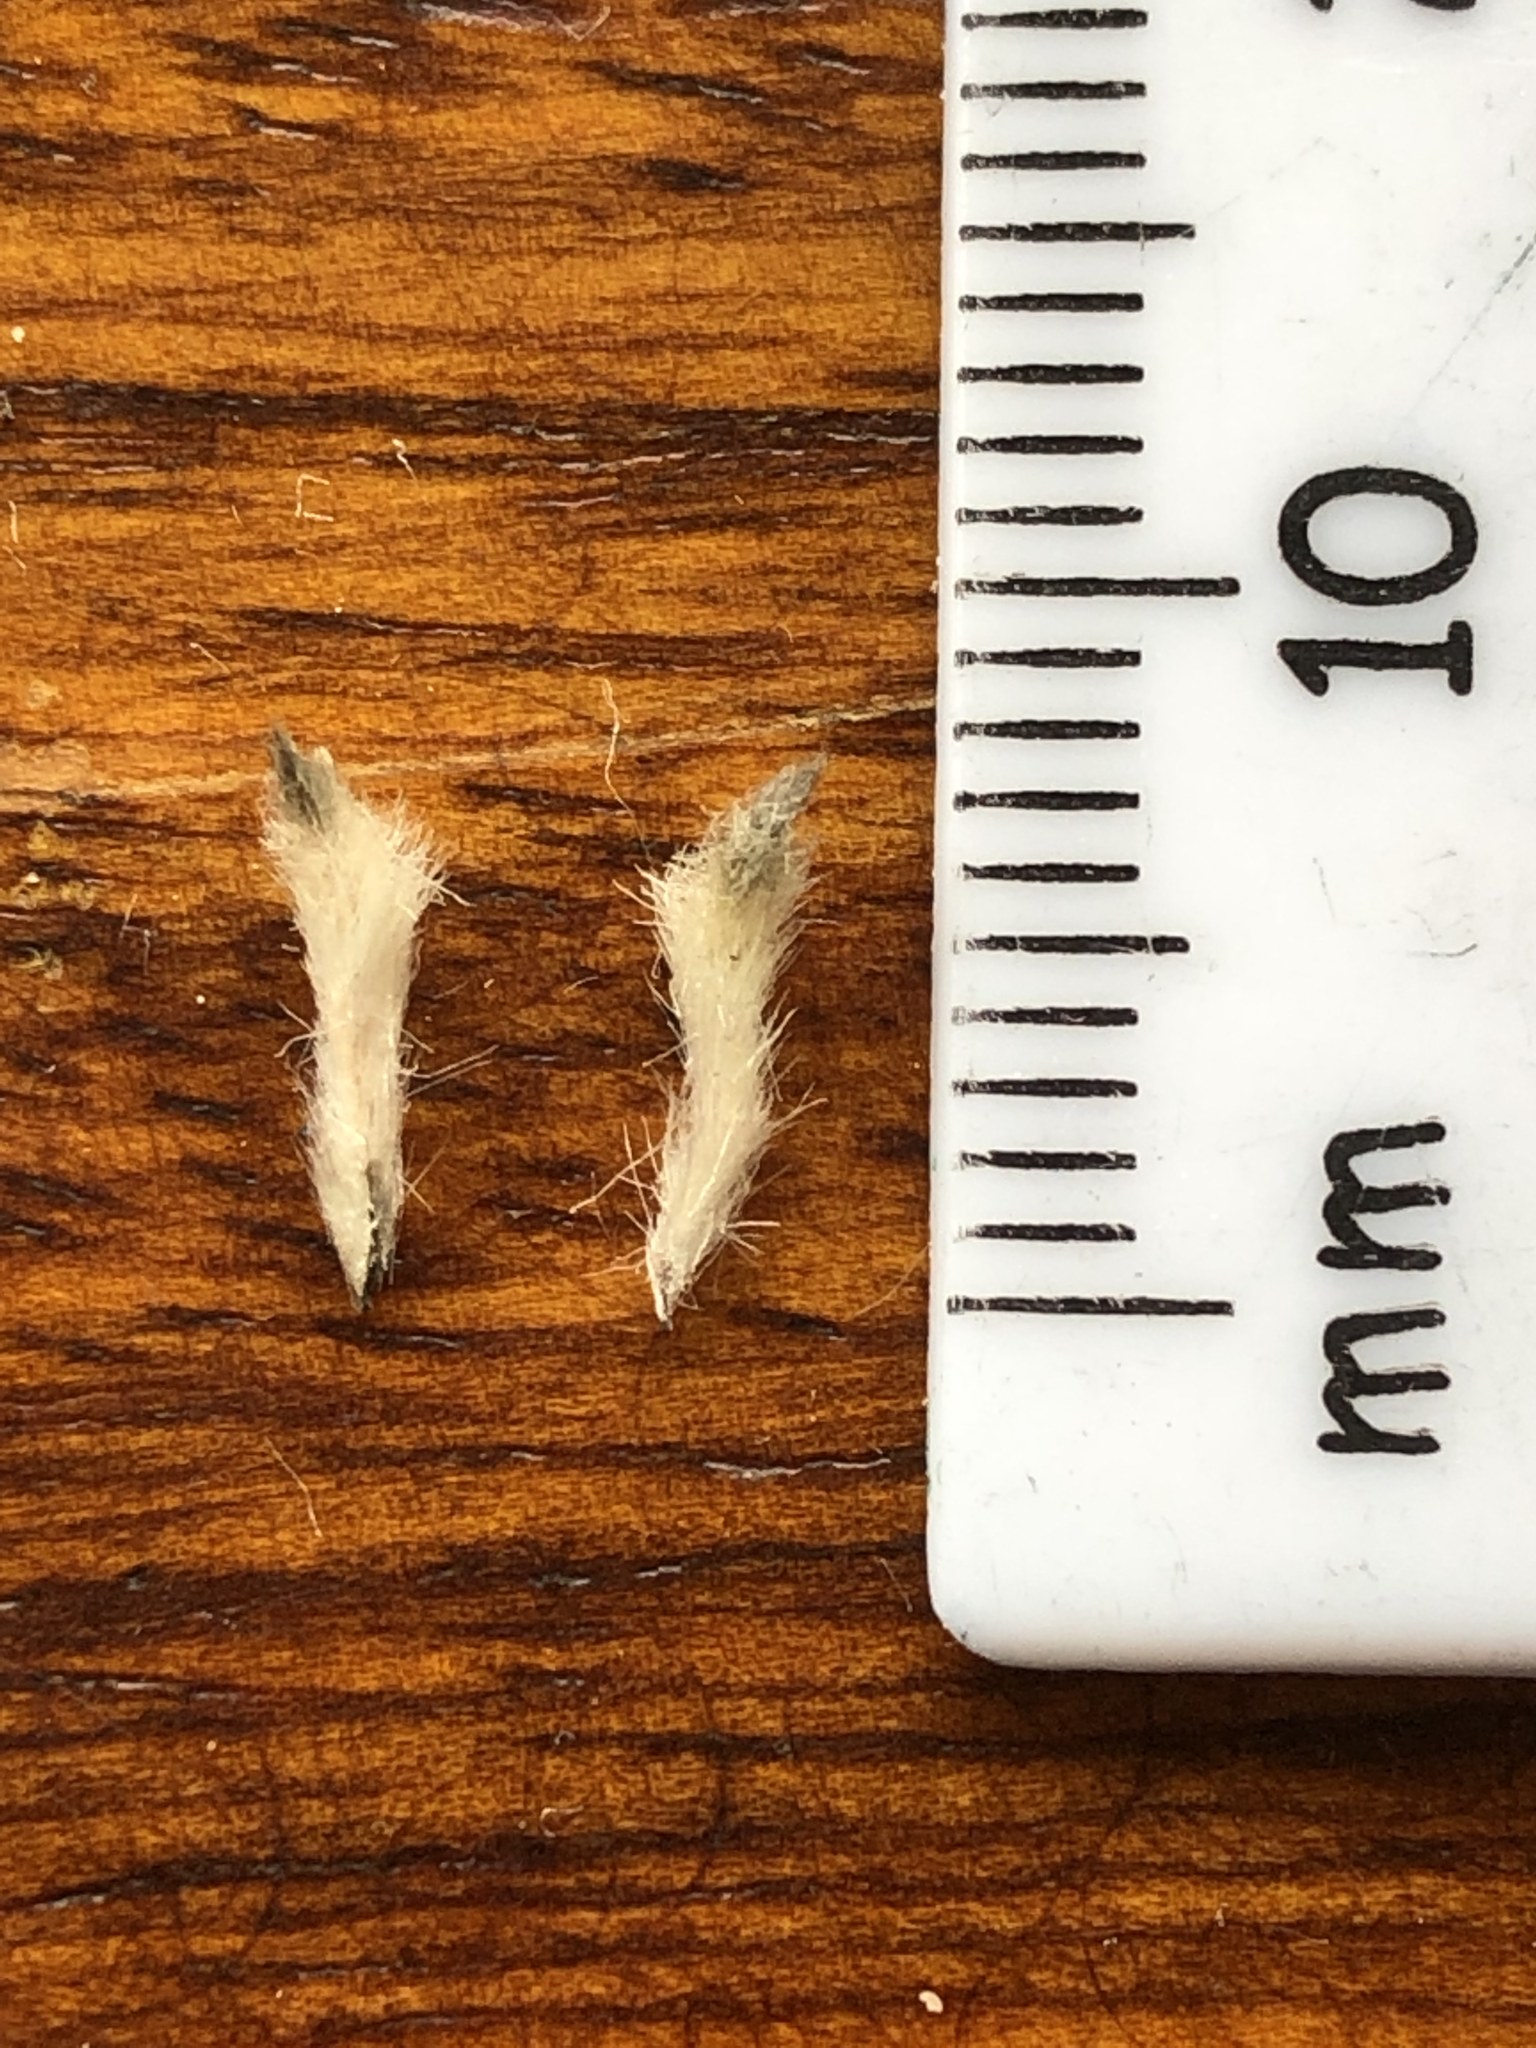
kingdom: Plantae
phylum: Tracheophyta
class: Magnoliopsida
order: Rosales
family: Rhamnaceae
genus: Phylica
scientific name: Phylica tortuosa
